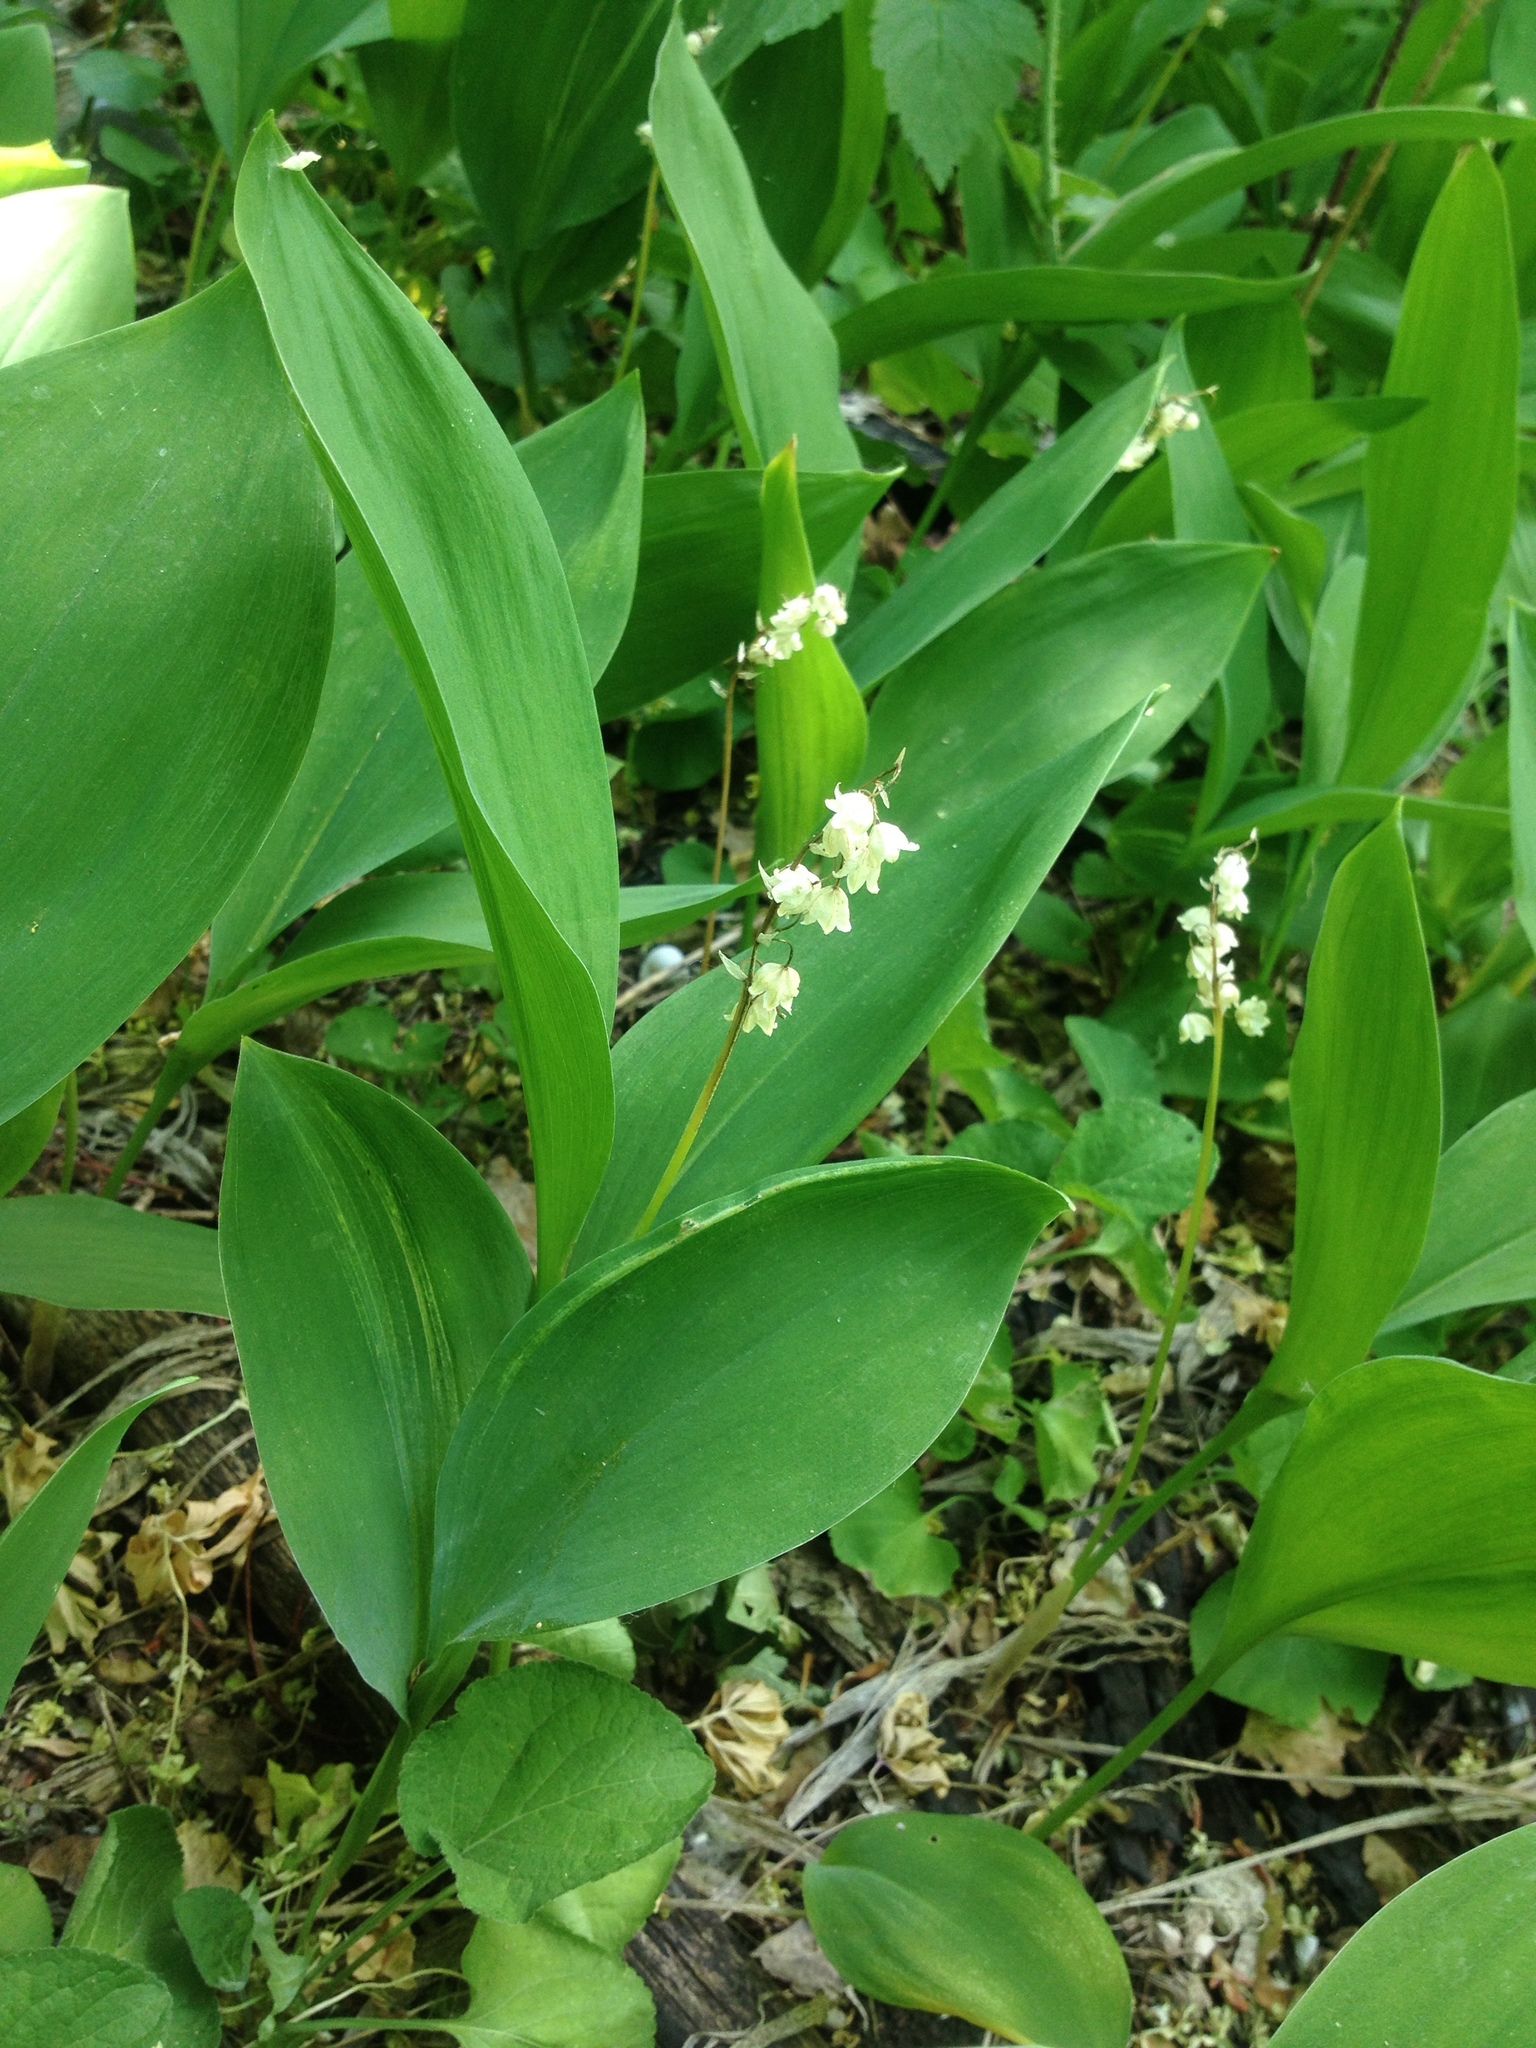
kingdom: Plantae
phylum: Tracheophyta
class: Liliopsida
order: Asparagales
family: Asparagaceae
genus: Convallaria
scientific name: Convallaria majalis
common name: Lily-of-the-valley
